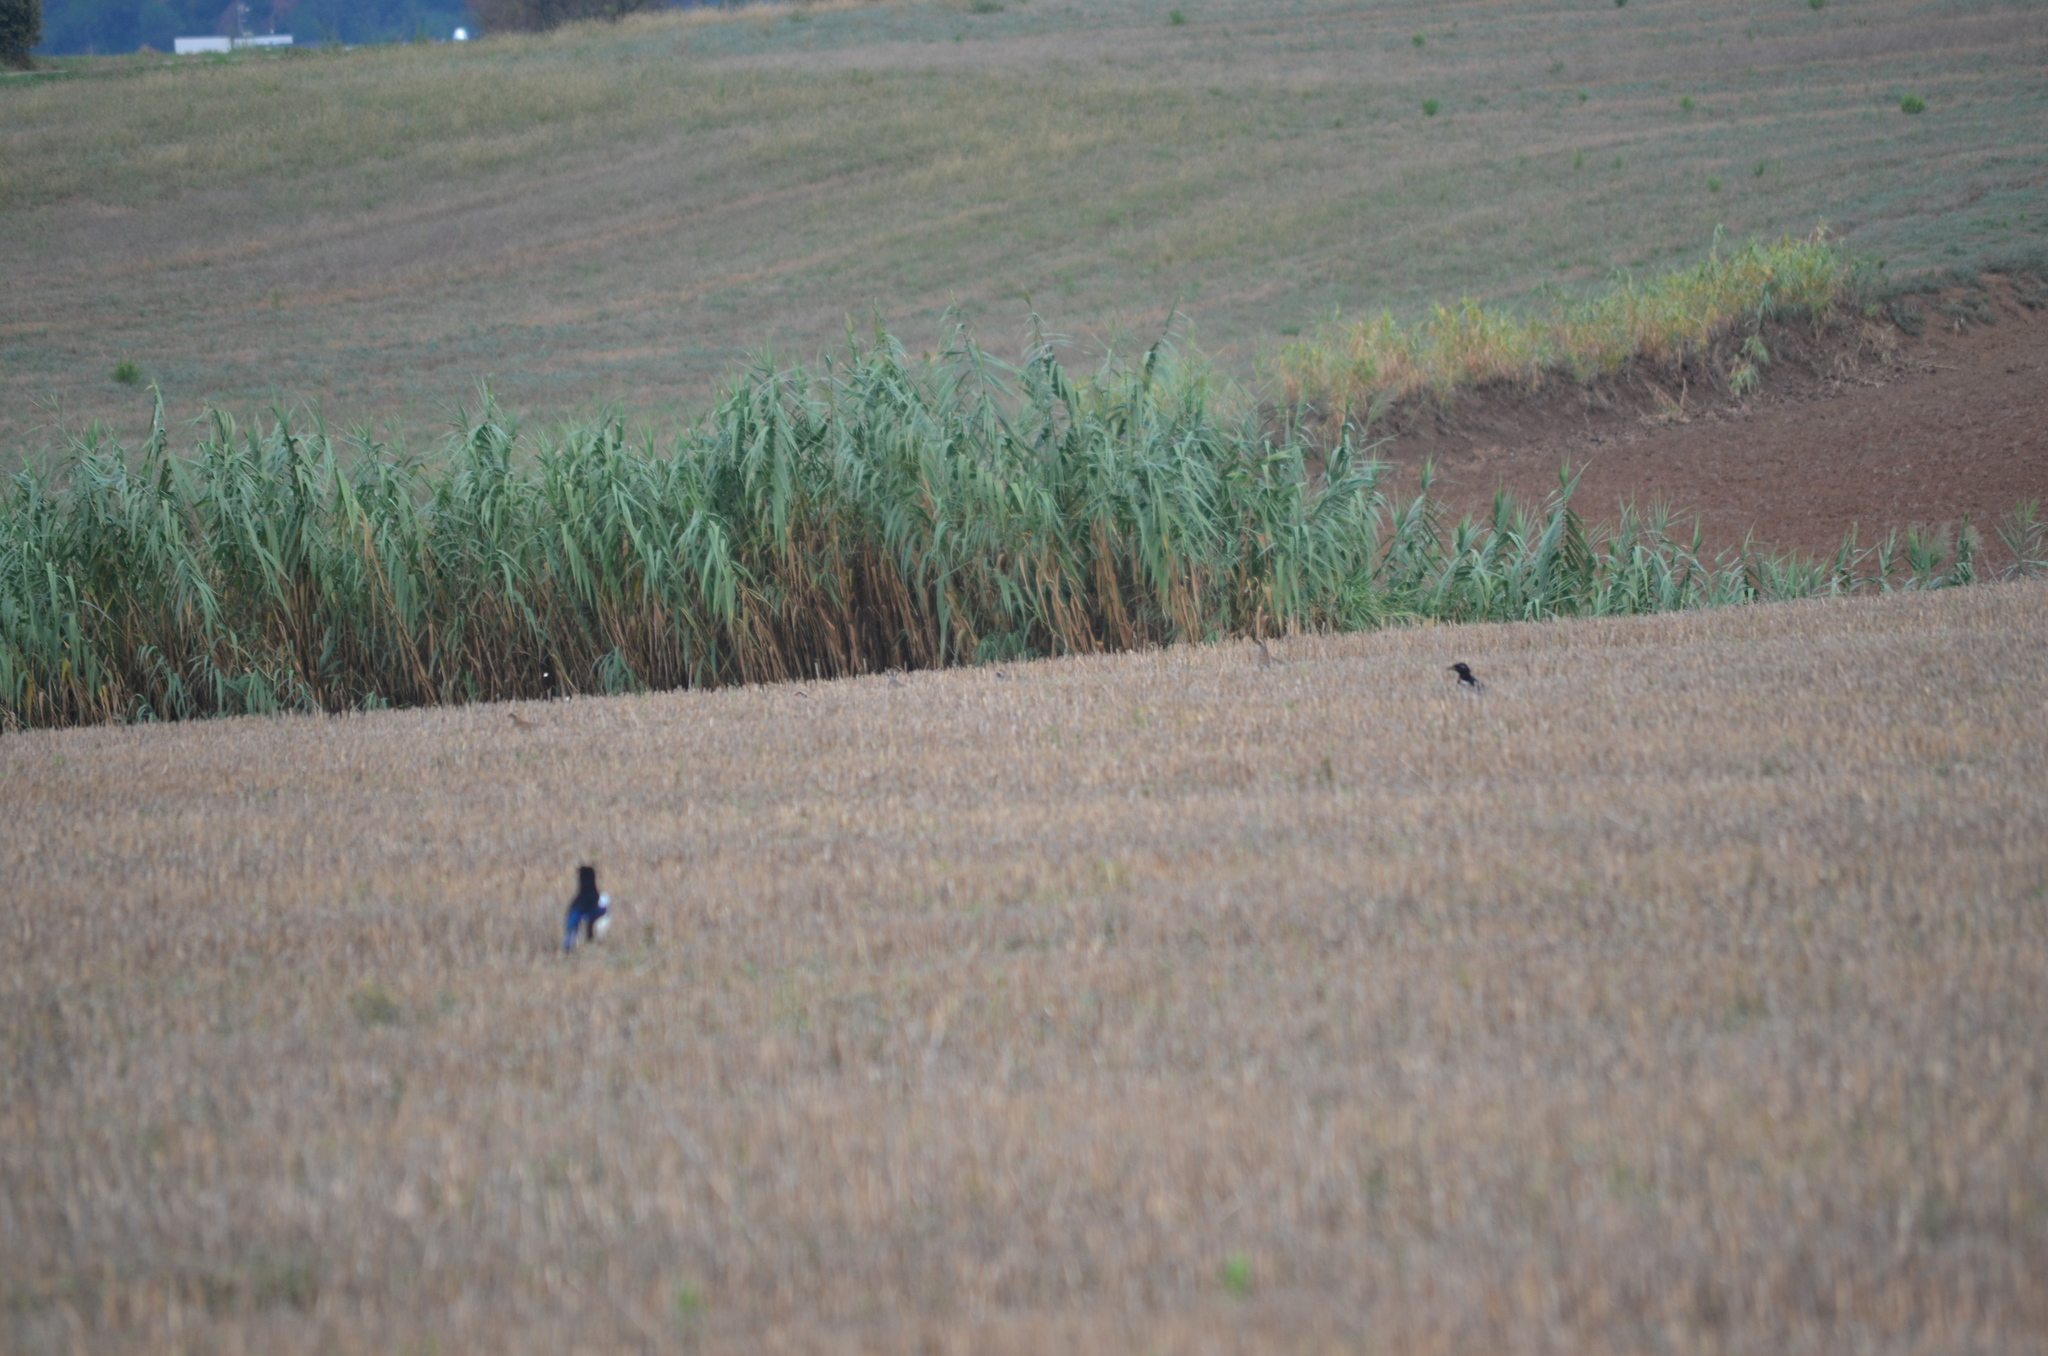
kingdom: Animalia
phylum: Chordata
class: Aves
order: Passeriformes
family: Corvidae
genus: Pica
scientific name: Pica pica
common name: Eurasian magpie
